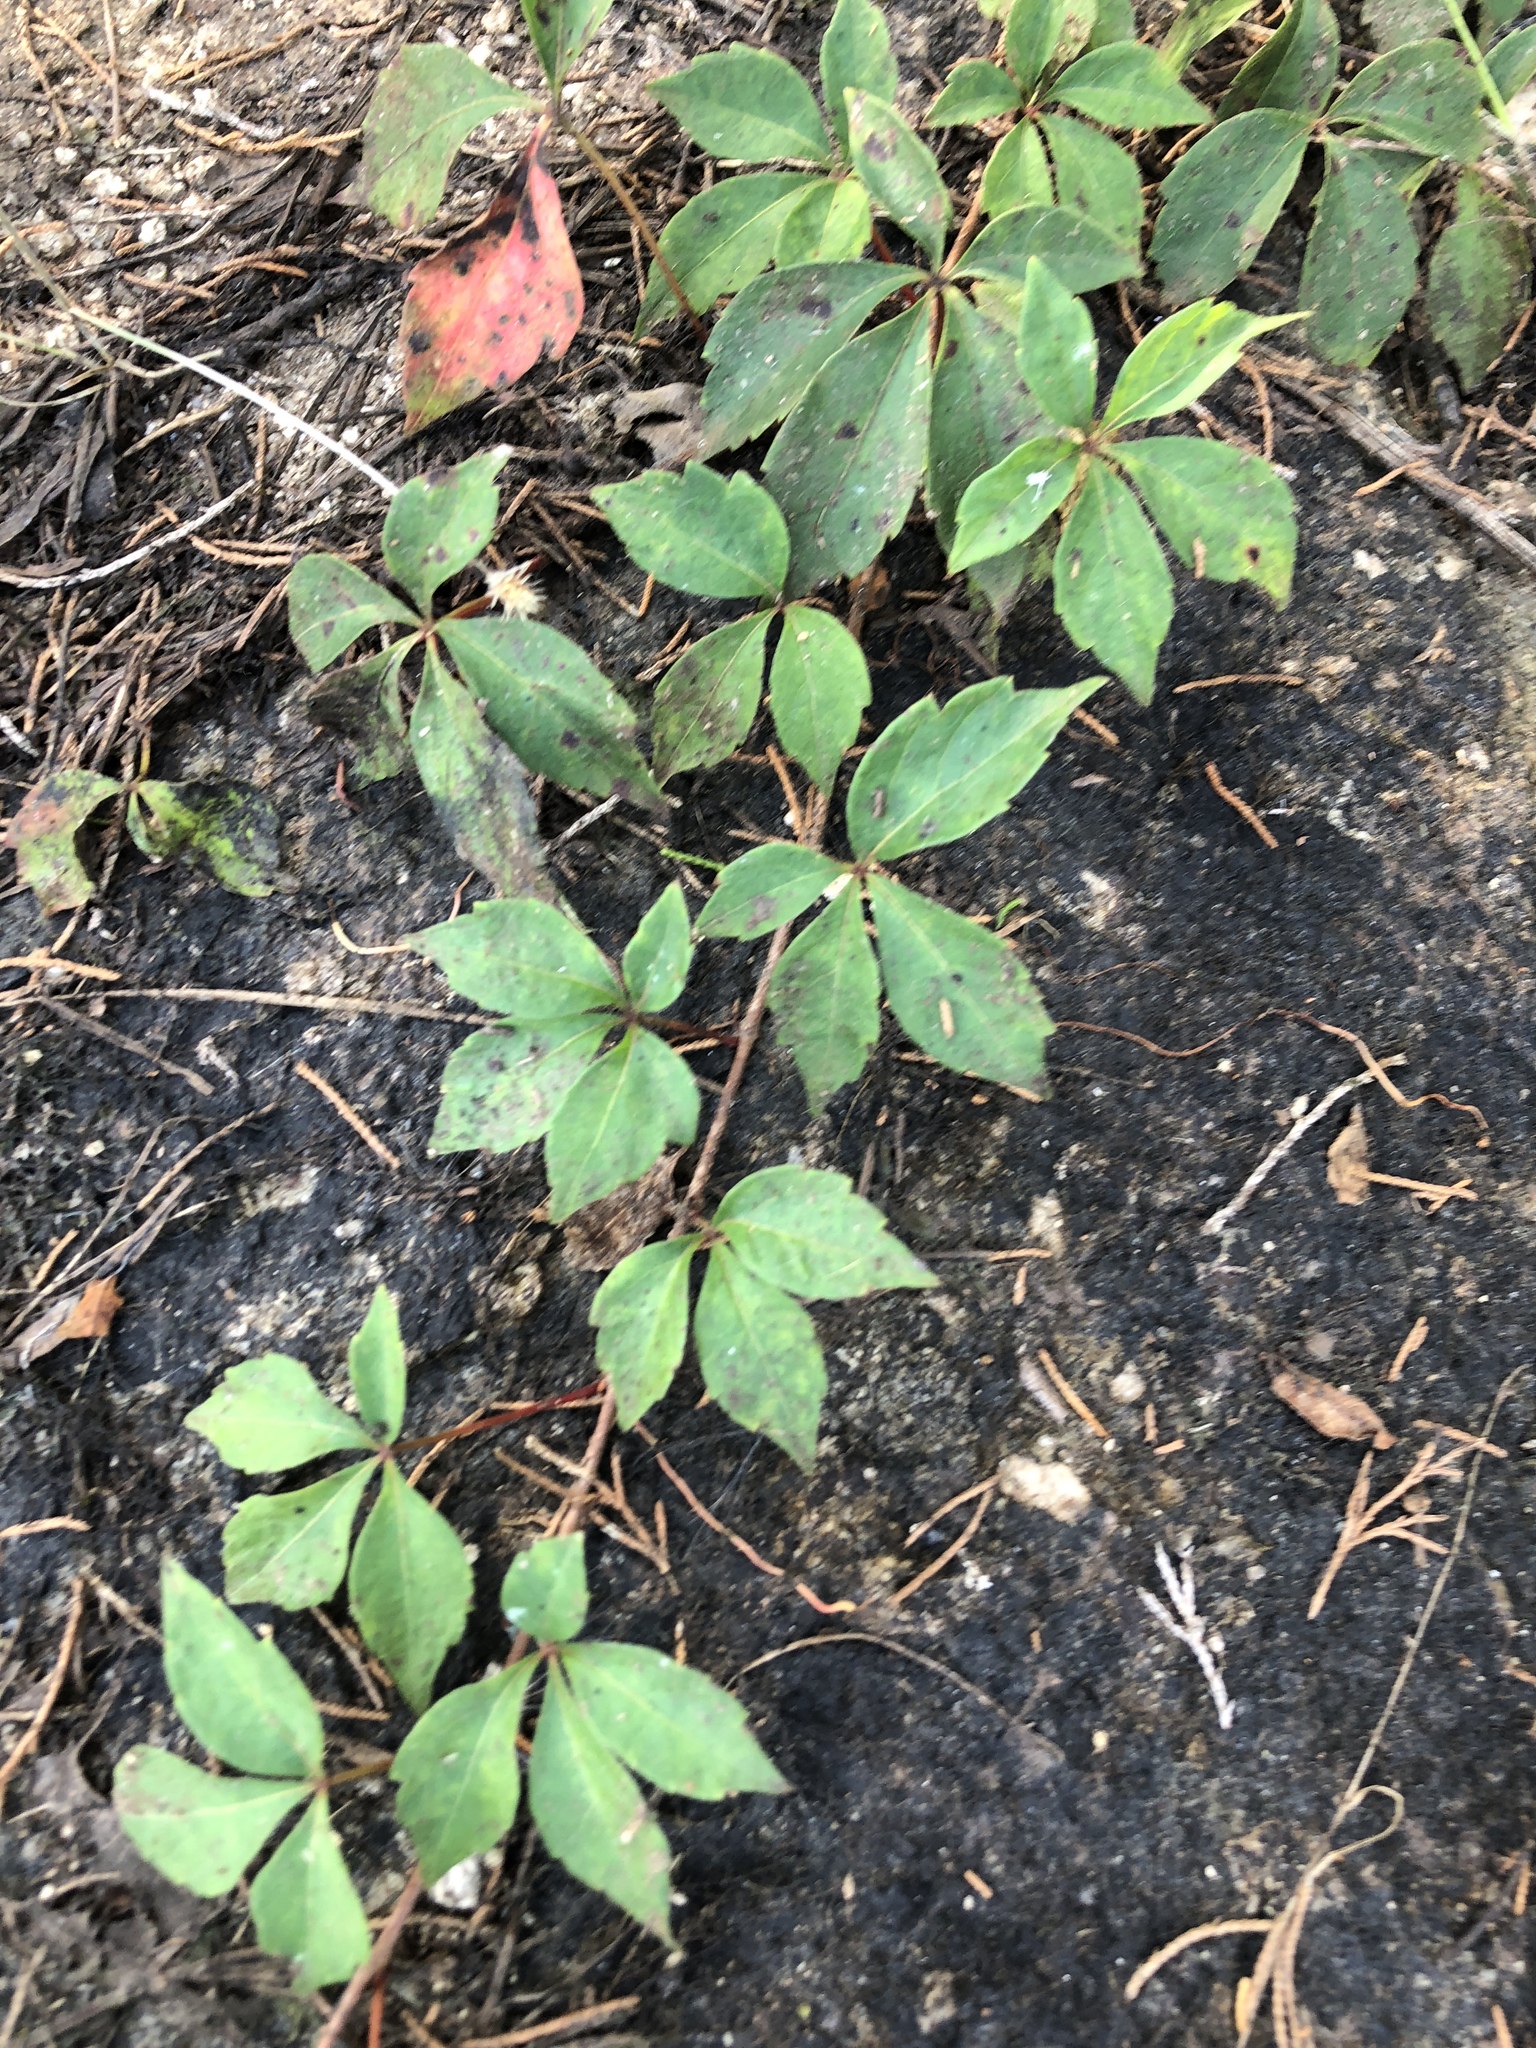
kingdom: Plantae
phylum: Tracheophyta
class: Magnoliopsida
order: Vitales
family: Vitaceae
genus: Parthenocissus
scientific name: Parthenocissus quinquefolia
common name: Virginia-creeper
